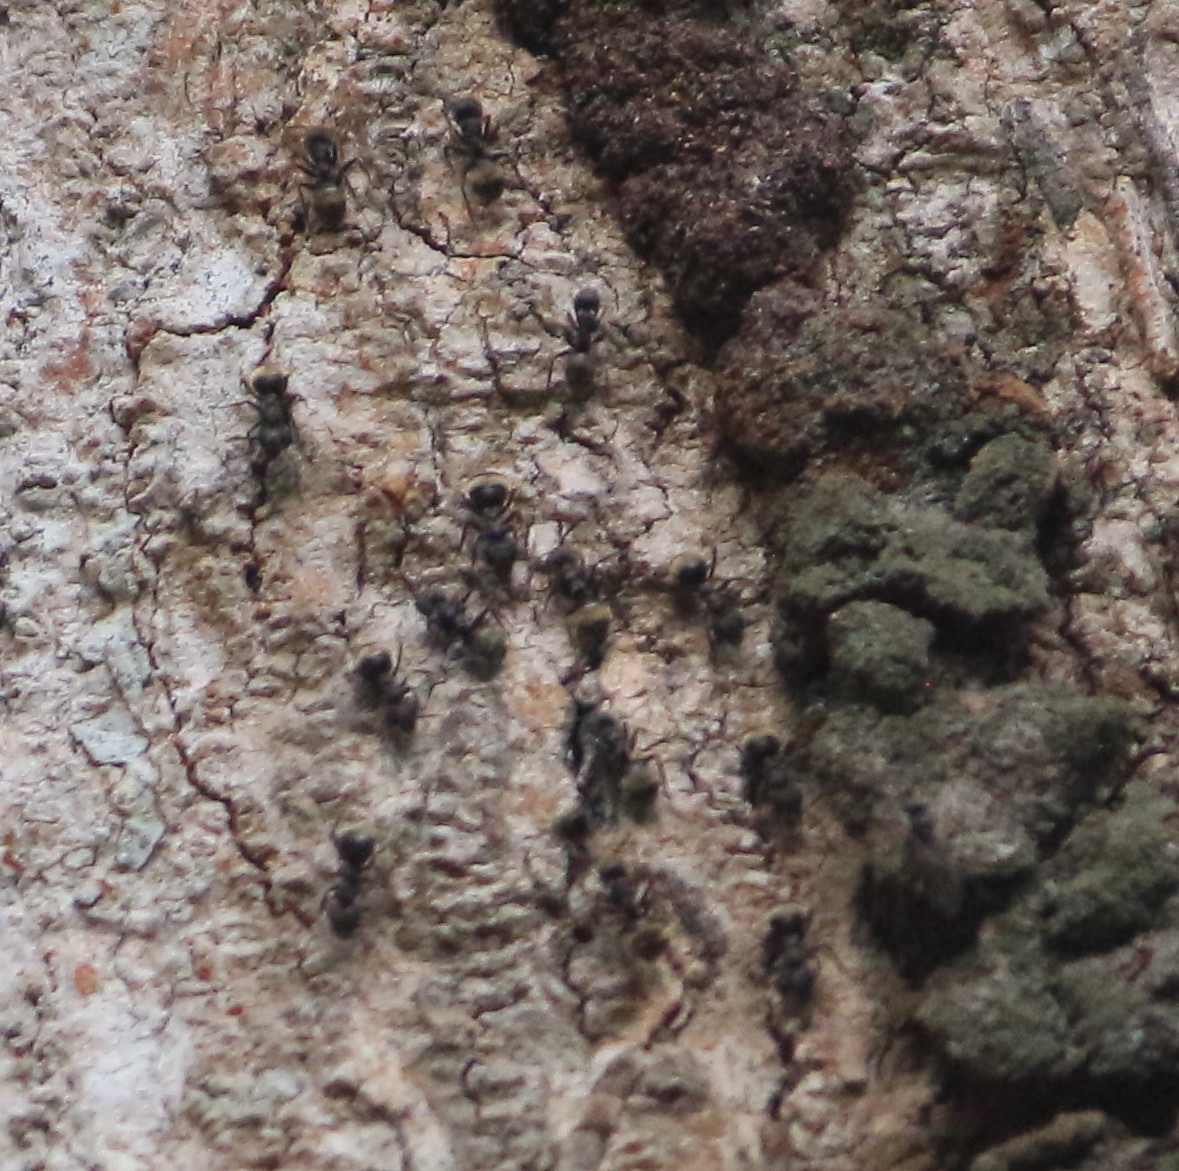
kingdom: Animalia
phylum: Arthropoda
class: Insecta
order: Hymenoptera
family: Formicidae
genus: Dolichoderus
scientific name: Dolichoderus bispinosus
